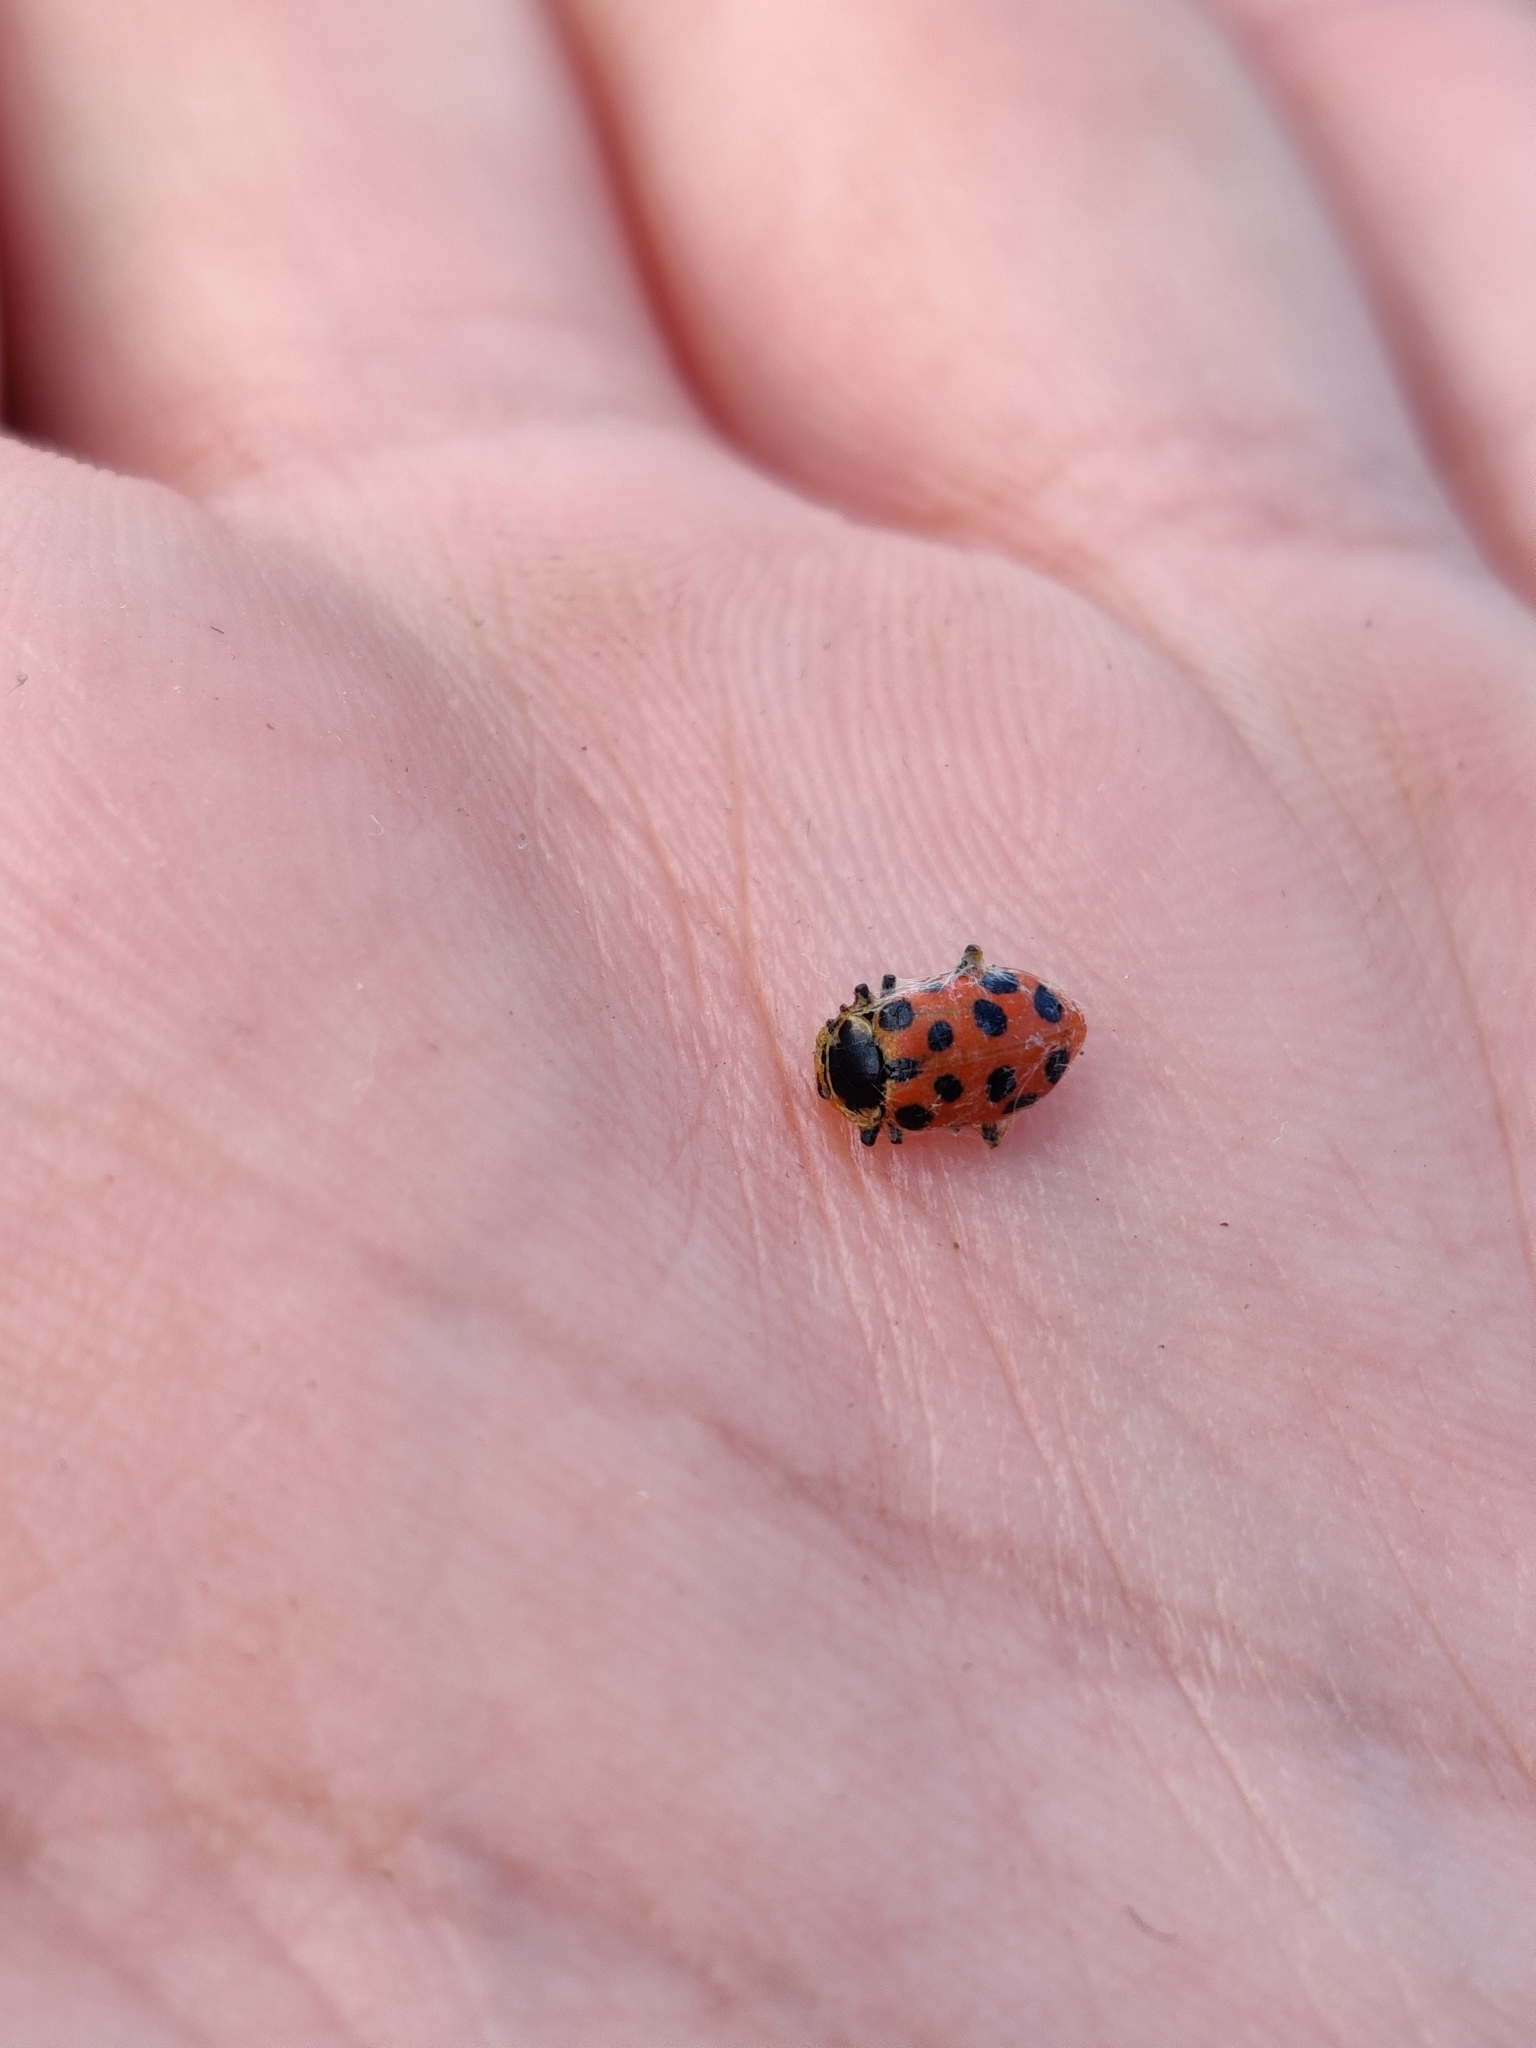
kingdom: Animalia
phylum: Arthropoda
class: Insecta
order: Coleoptera
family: Coccinellidae
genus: Hippodamia
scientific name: Hippodamia tredecimpunctata
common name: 13-spot ladybird
